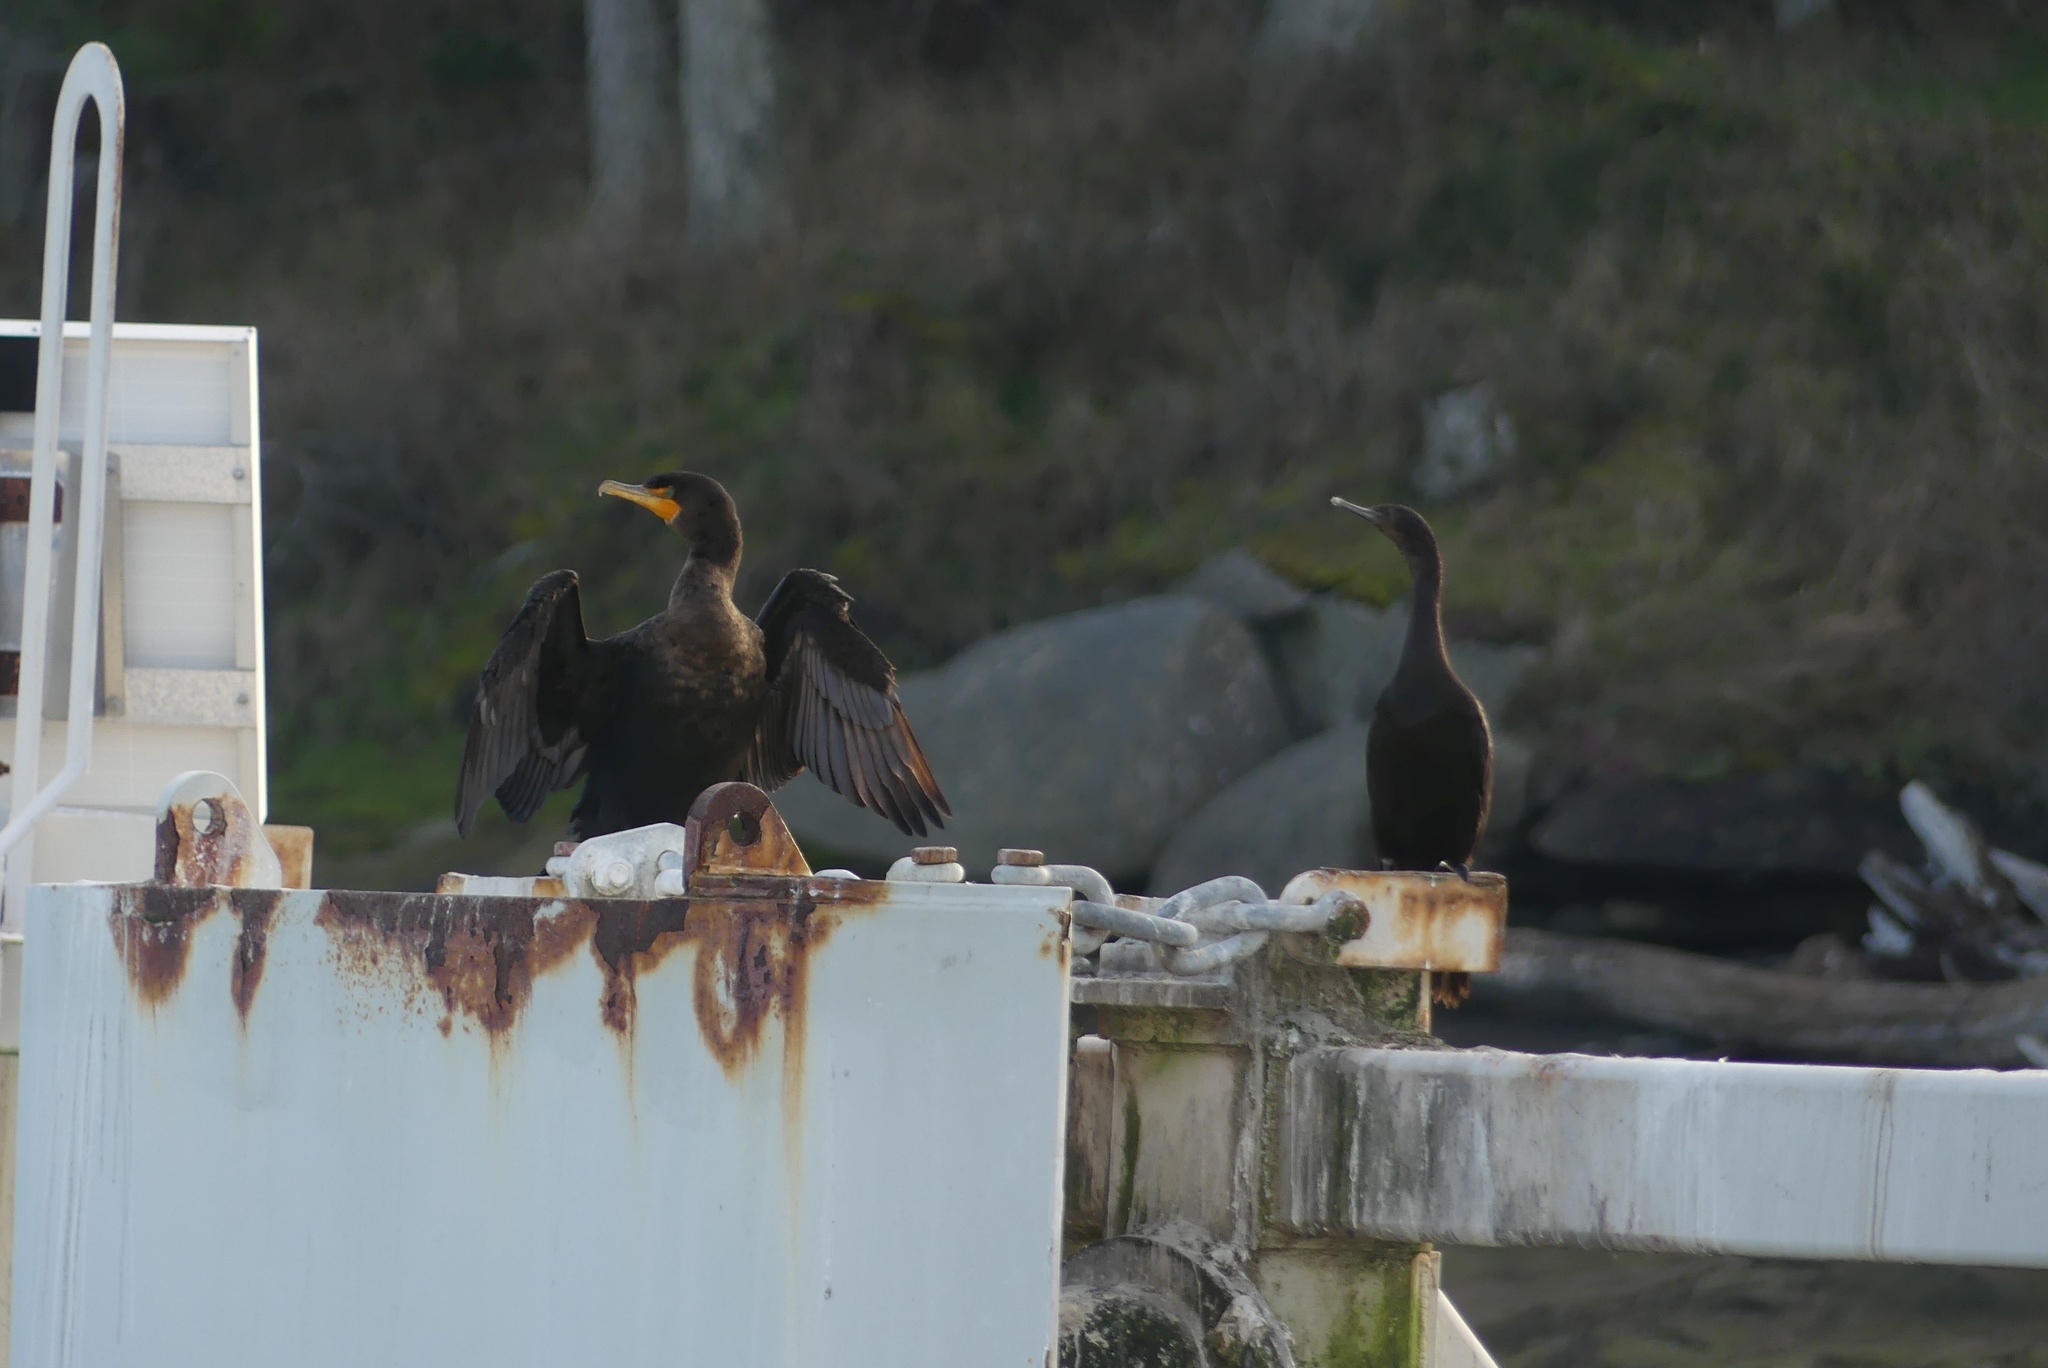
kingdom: Animalia
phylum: Chordata
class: Aves
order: Suliformes
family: Phalacrocoracidae
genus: Phalacrocorax
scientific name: Phalacrocorax auritus
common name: Double-crested cormorant
